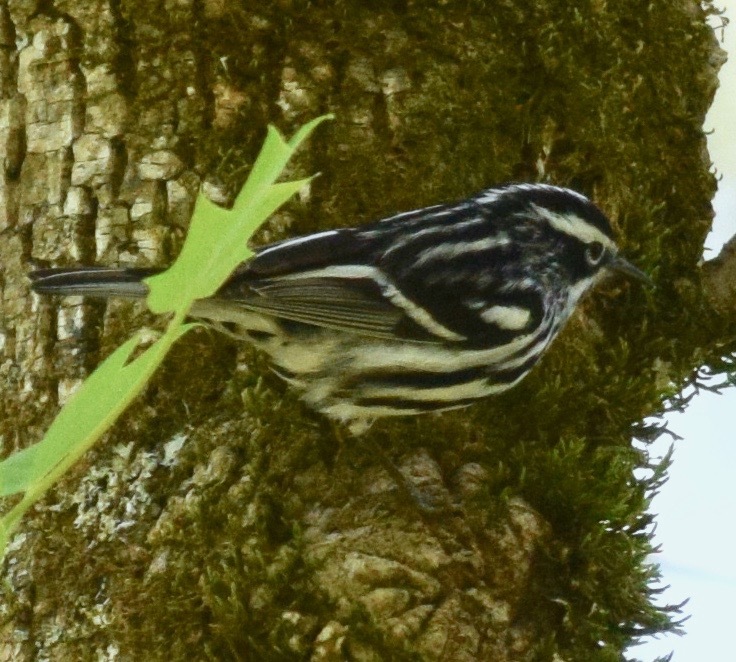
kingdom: Animalia
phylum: Chordata
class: Aves
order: Passeriformes
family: Parulidae
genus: Mniotilta
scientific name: Mniotilta varia
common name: Black-and-white warbler
